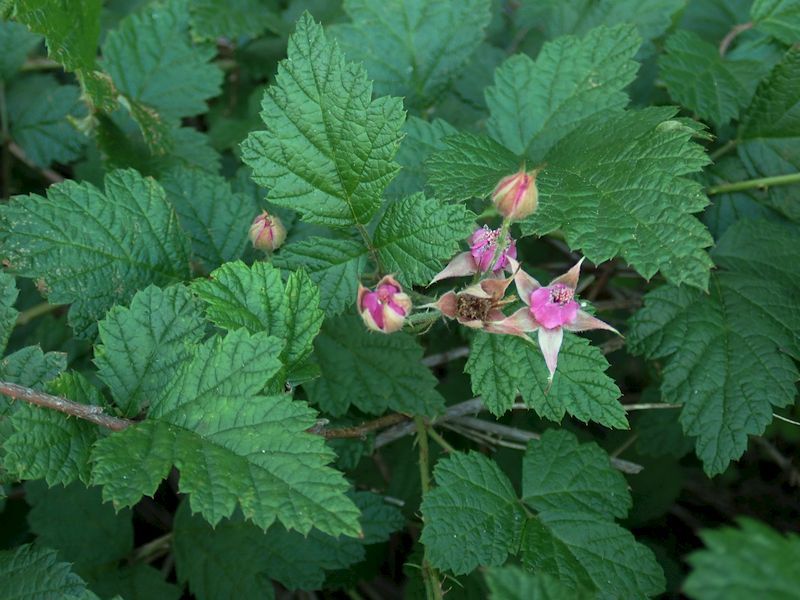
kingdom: Plantae
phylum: Tracheophyta
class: Magnoliopsida
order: Rosales
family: Rosaceae
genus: Rubus
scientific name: Rubus parvifolius
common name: Threeleaf blackberry
